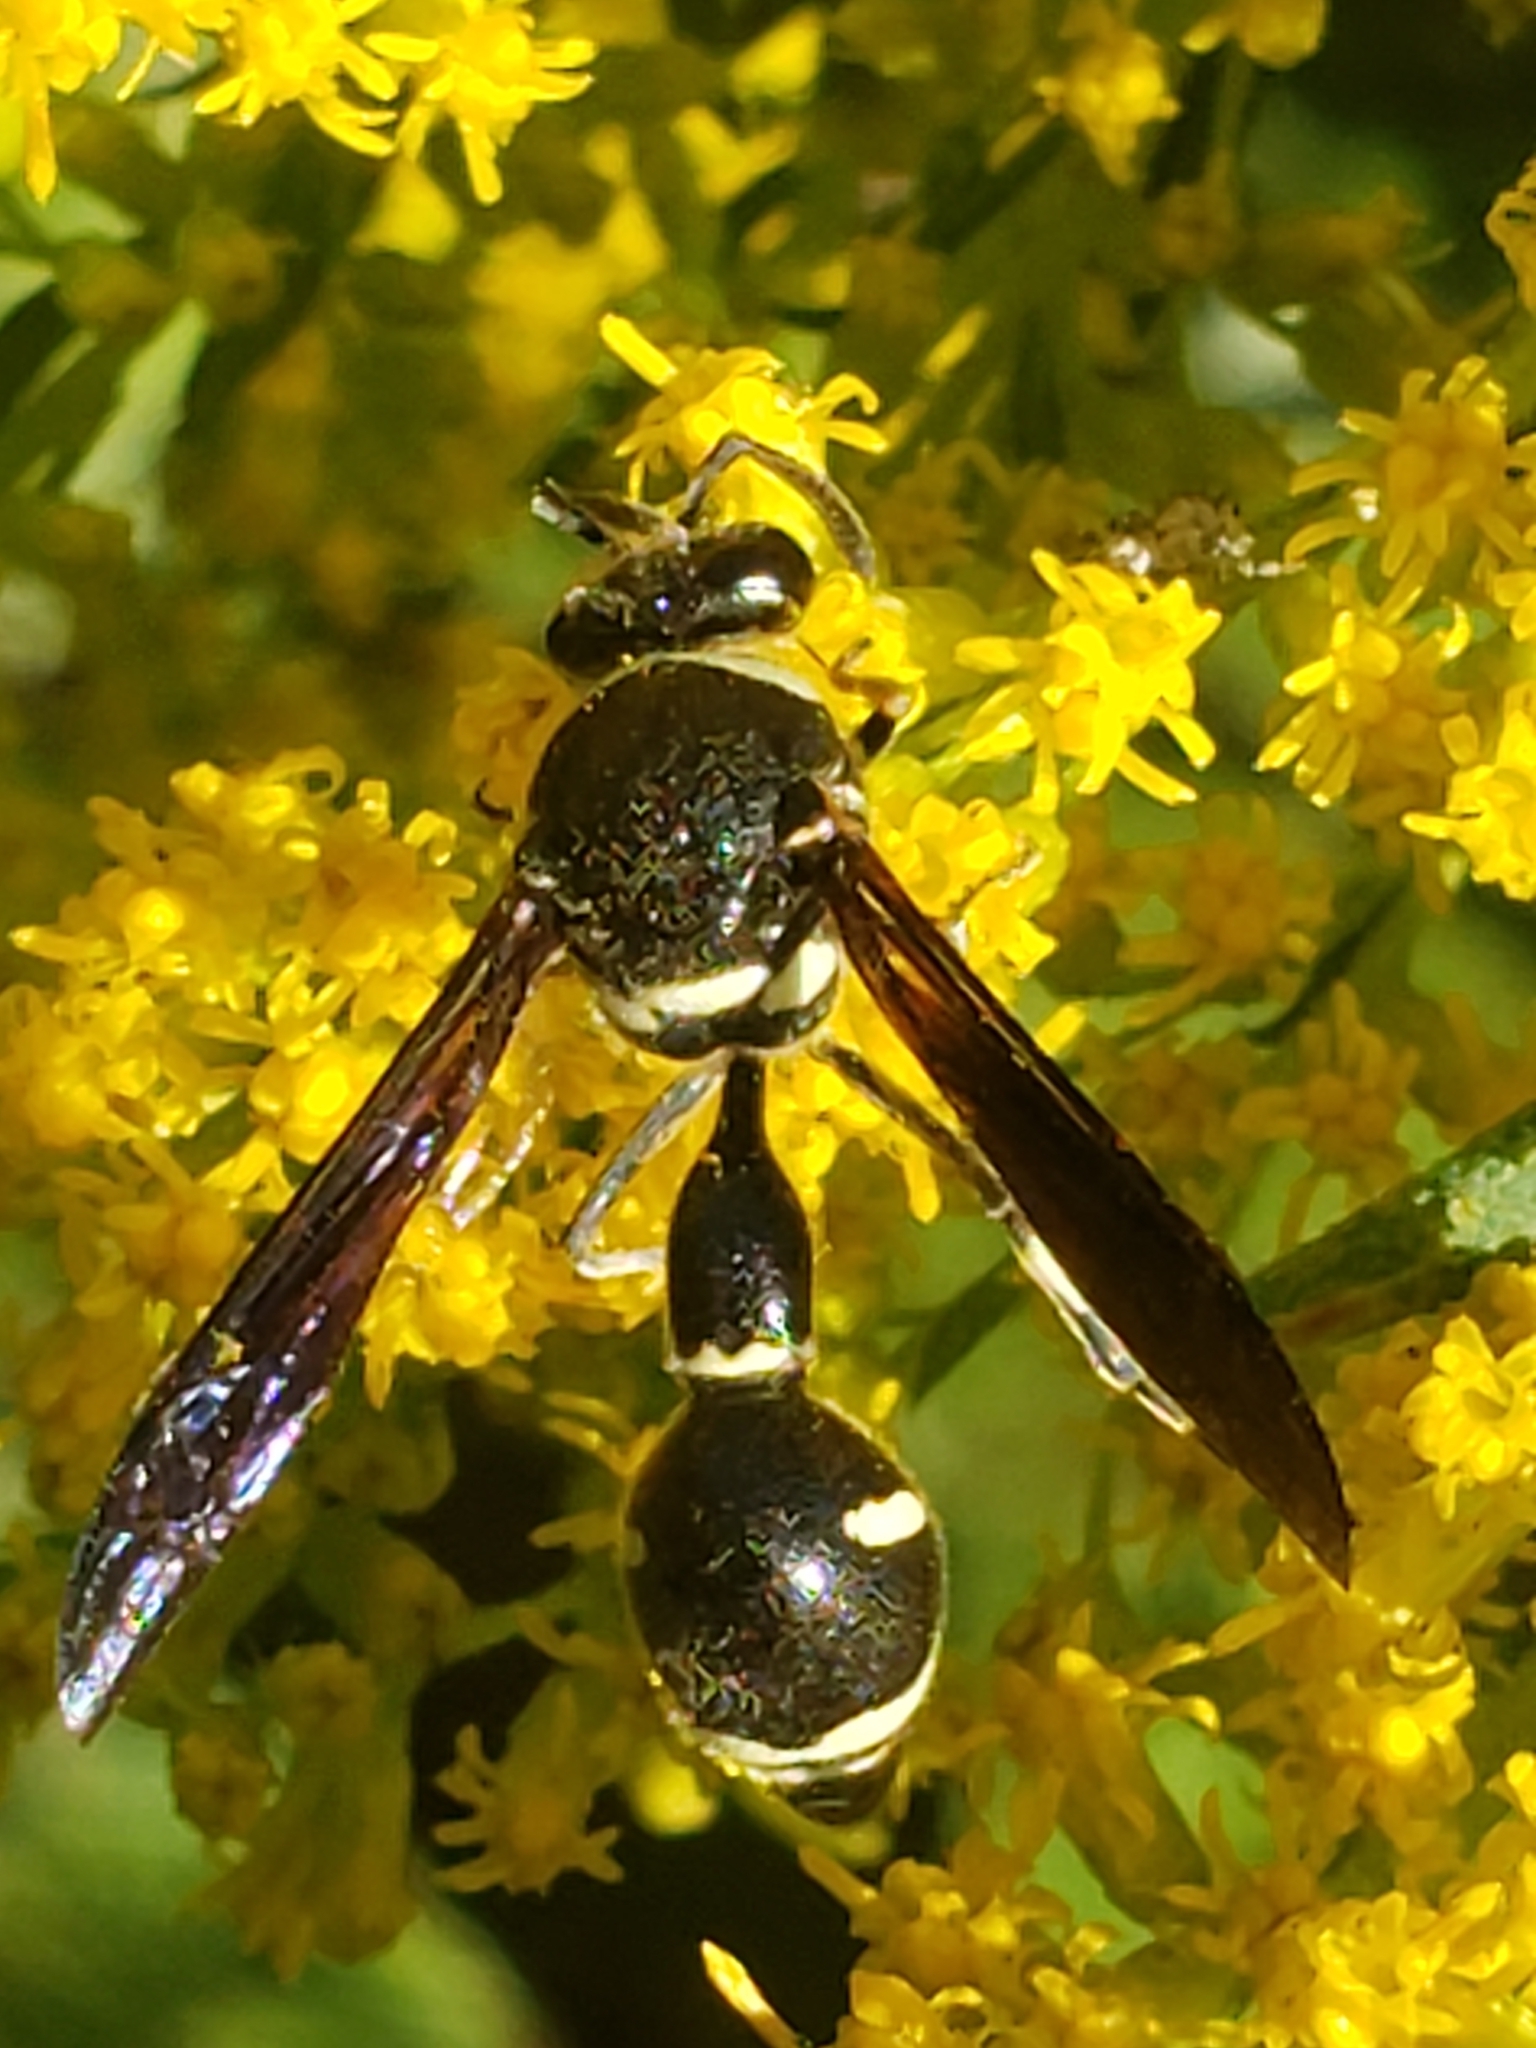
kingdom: Animalia
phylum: Arthropoda
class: Insecta
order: Hymenoptera
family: Vespidae
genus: Eumenes
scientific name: Eumenes fraternus
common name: Fraternal potter wasp
